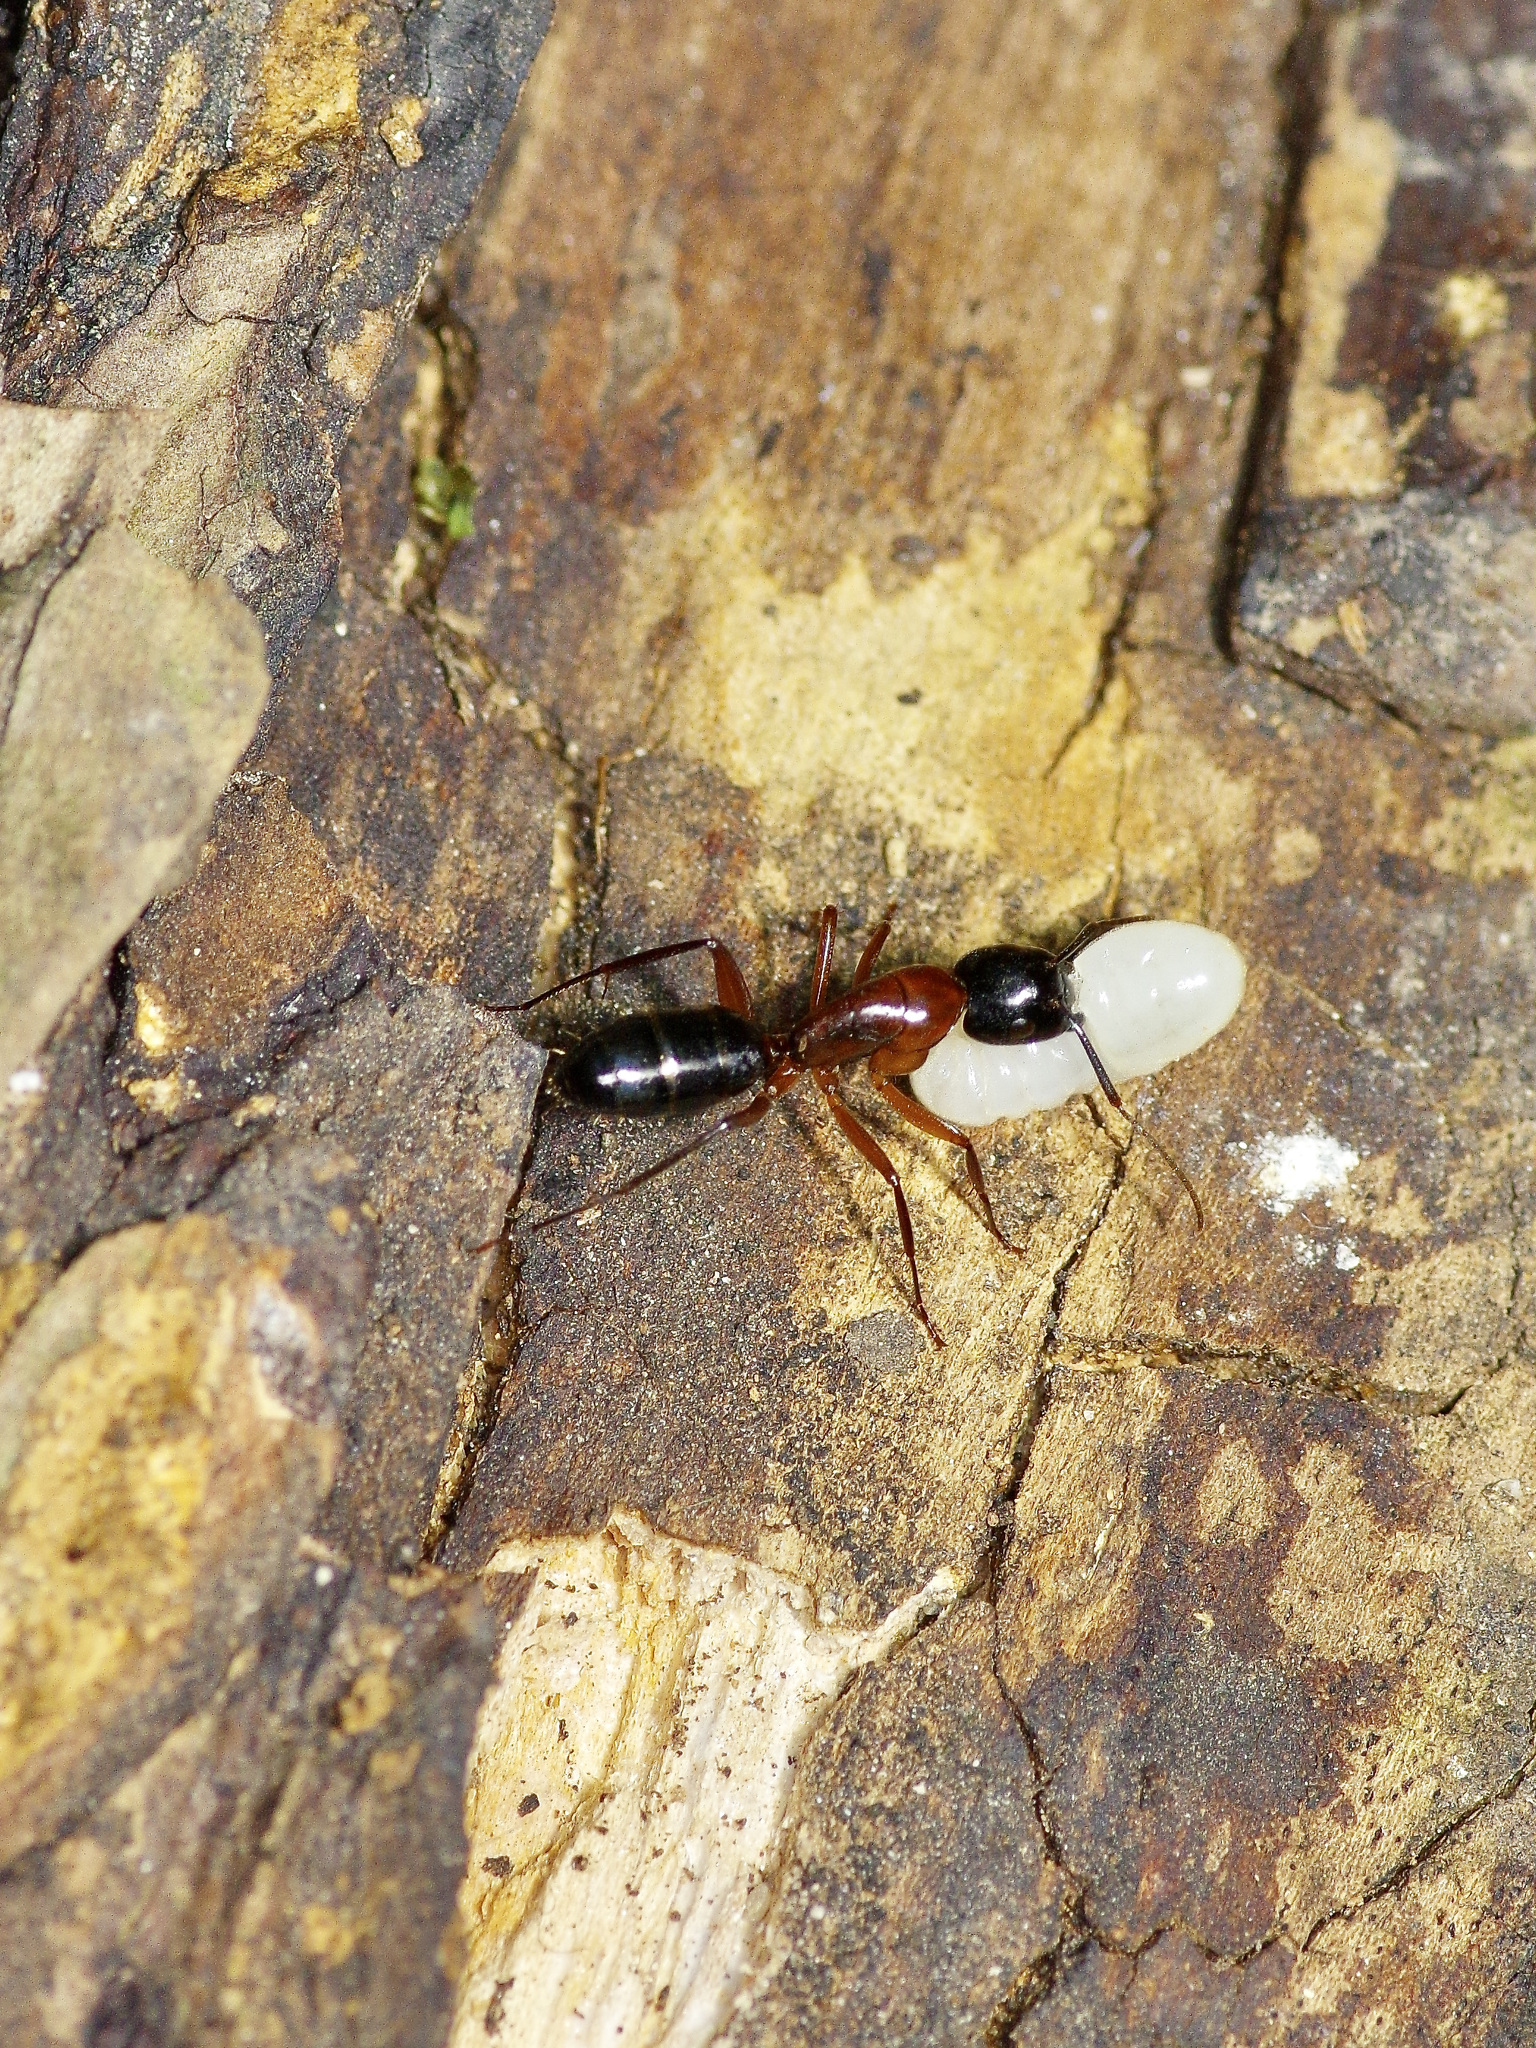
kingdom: Animalia
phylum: Arthropoda
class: Insecta
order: Hymenoptera
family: Formicidae
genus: Camponotus
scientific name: Camponotus texanus
